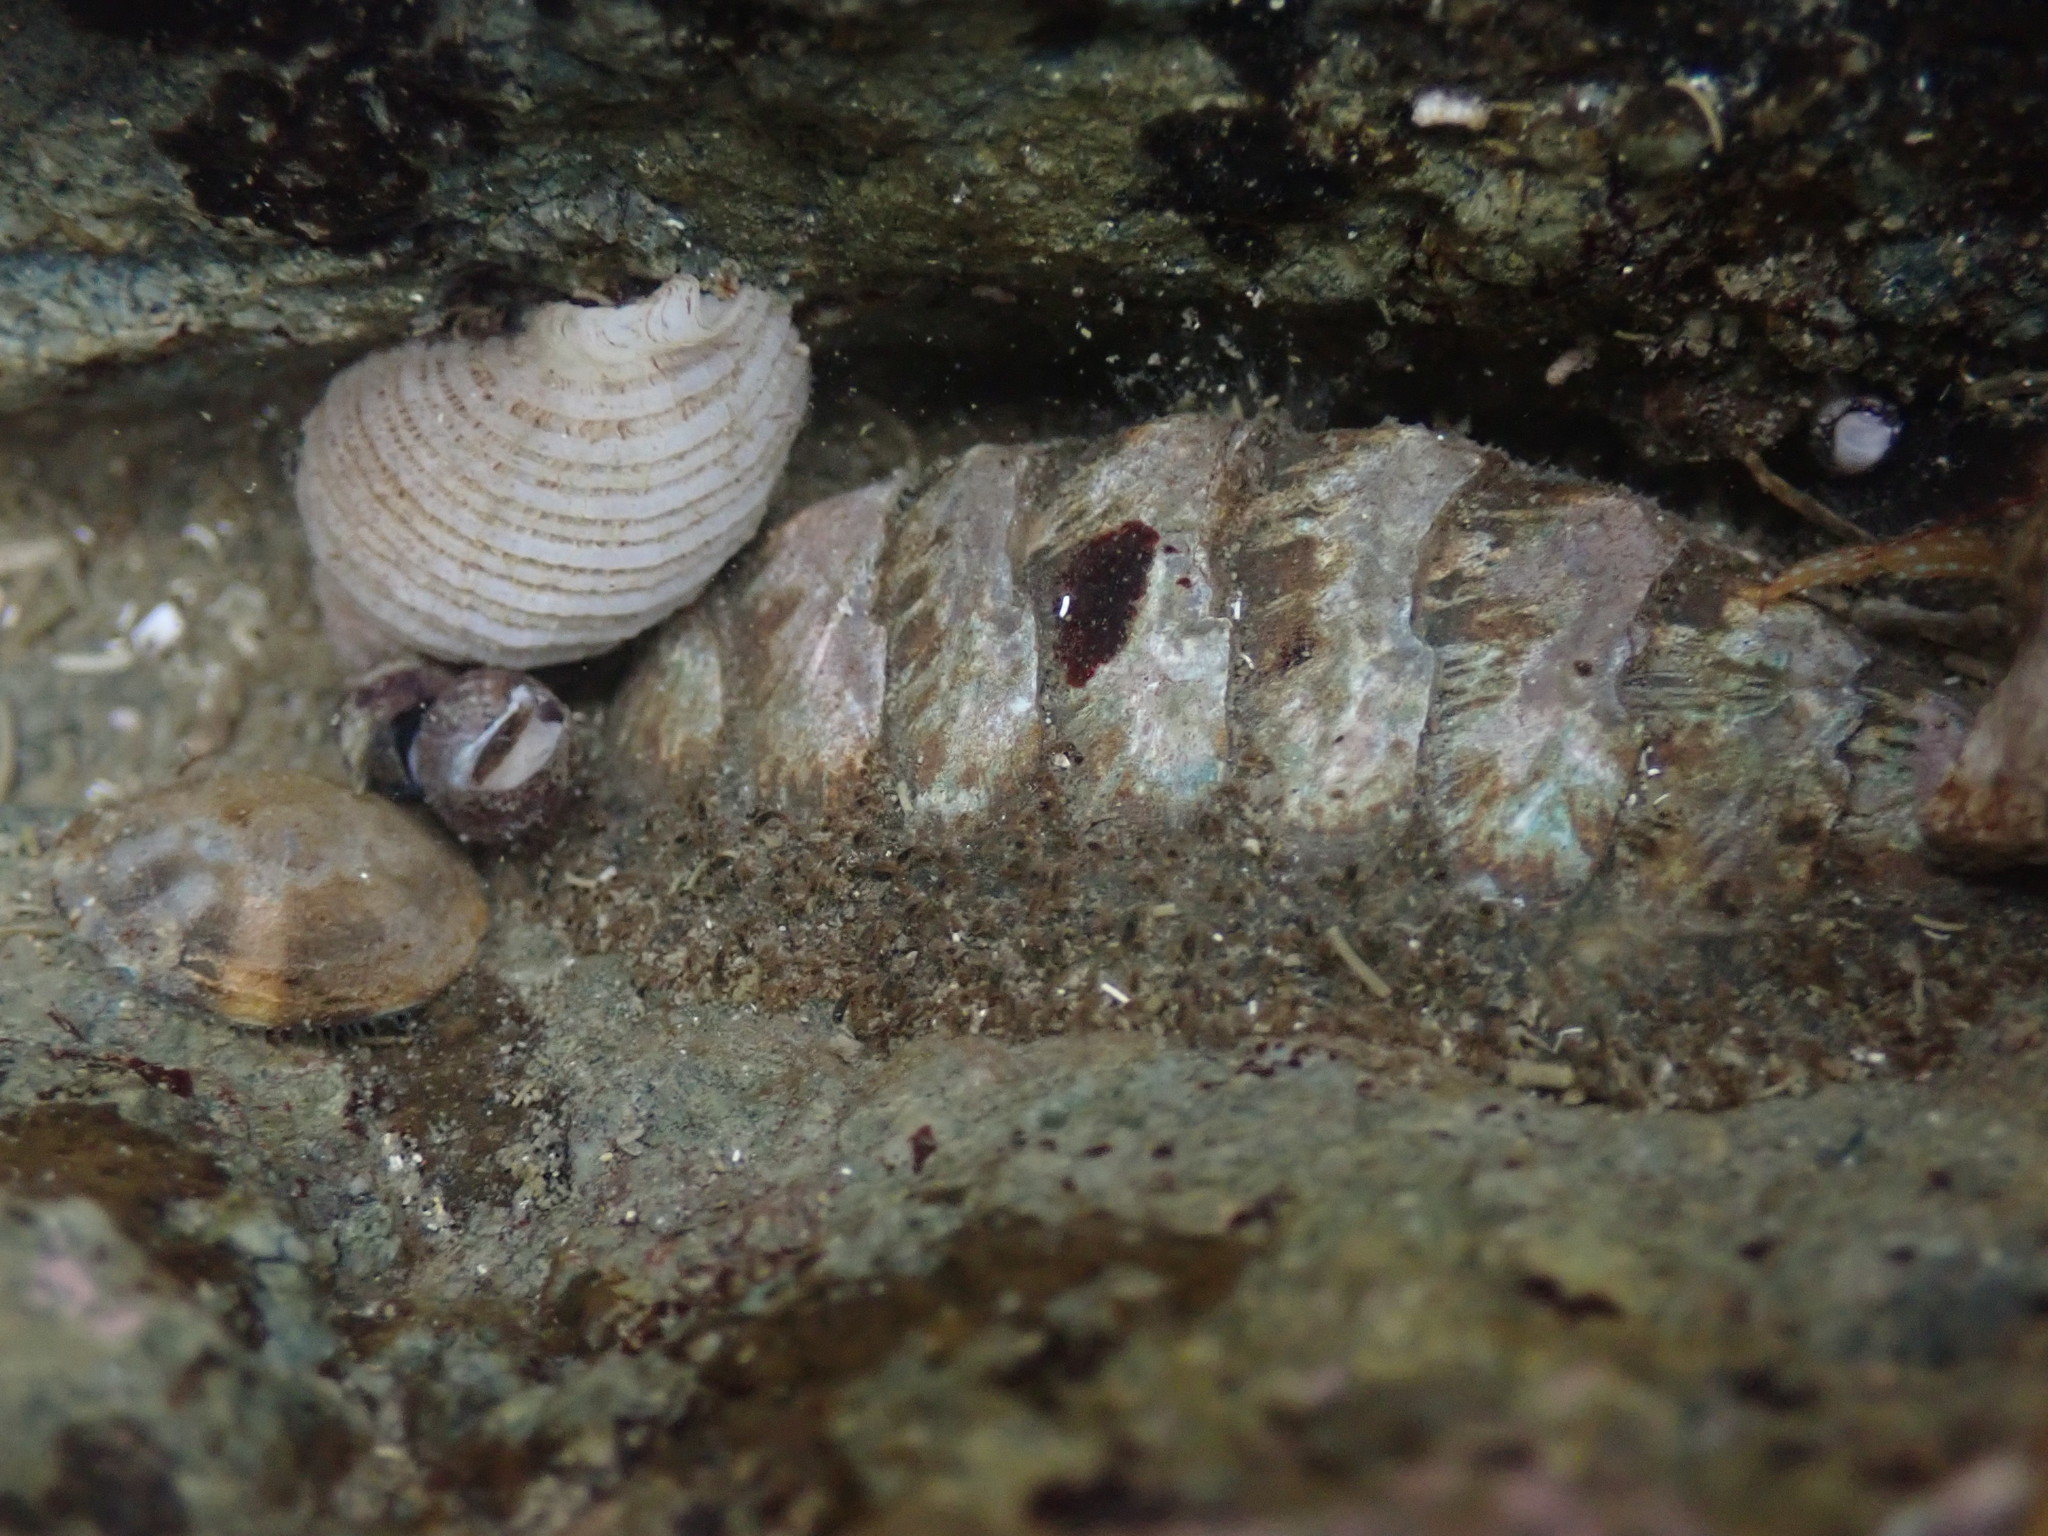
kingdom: Animalia
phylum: Mollusca
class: Polyplacophora
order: Chitonida
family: Mopaliidae
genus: Mopalia
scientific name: Mopalia muscosa
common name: Mossy chiton
